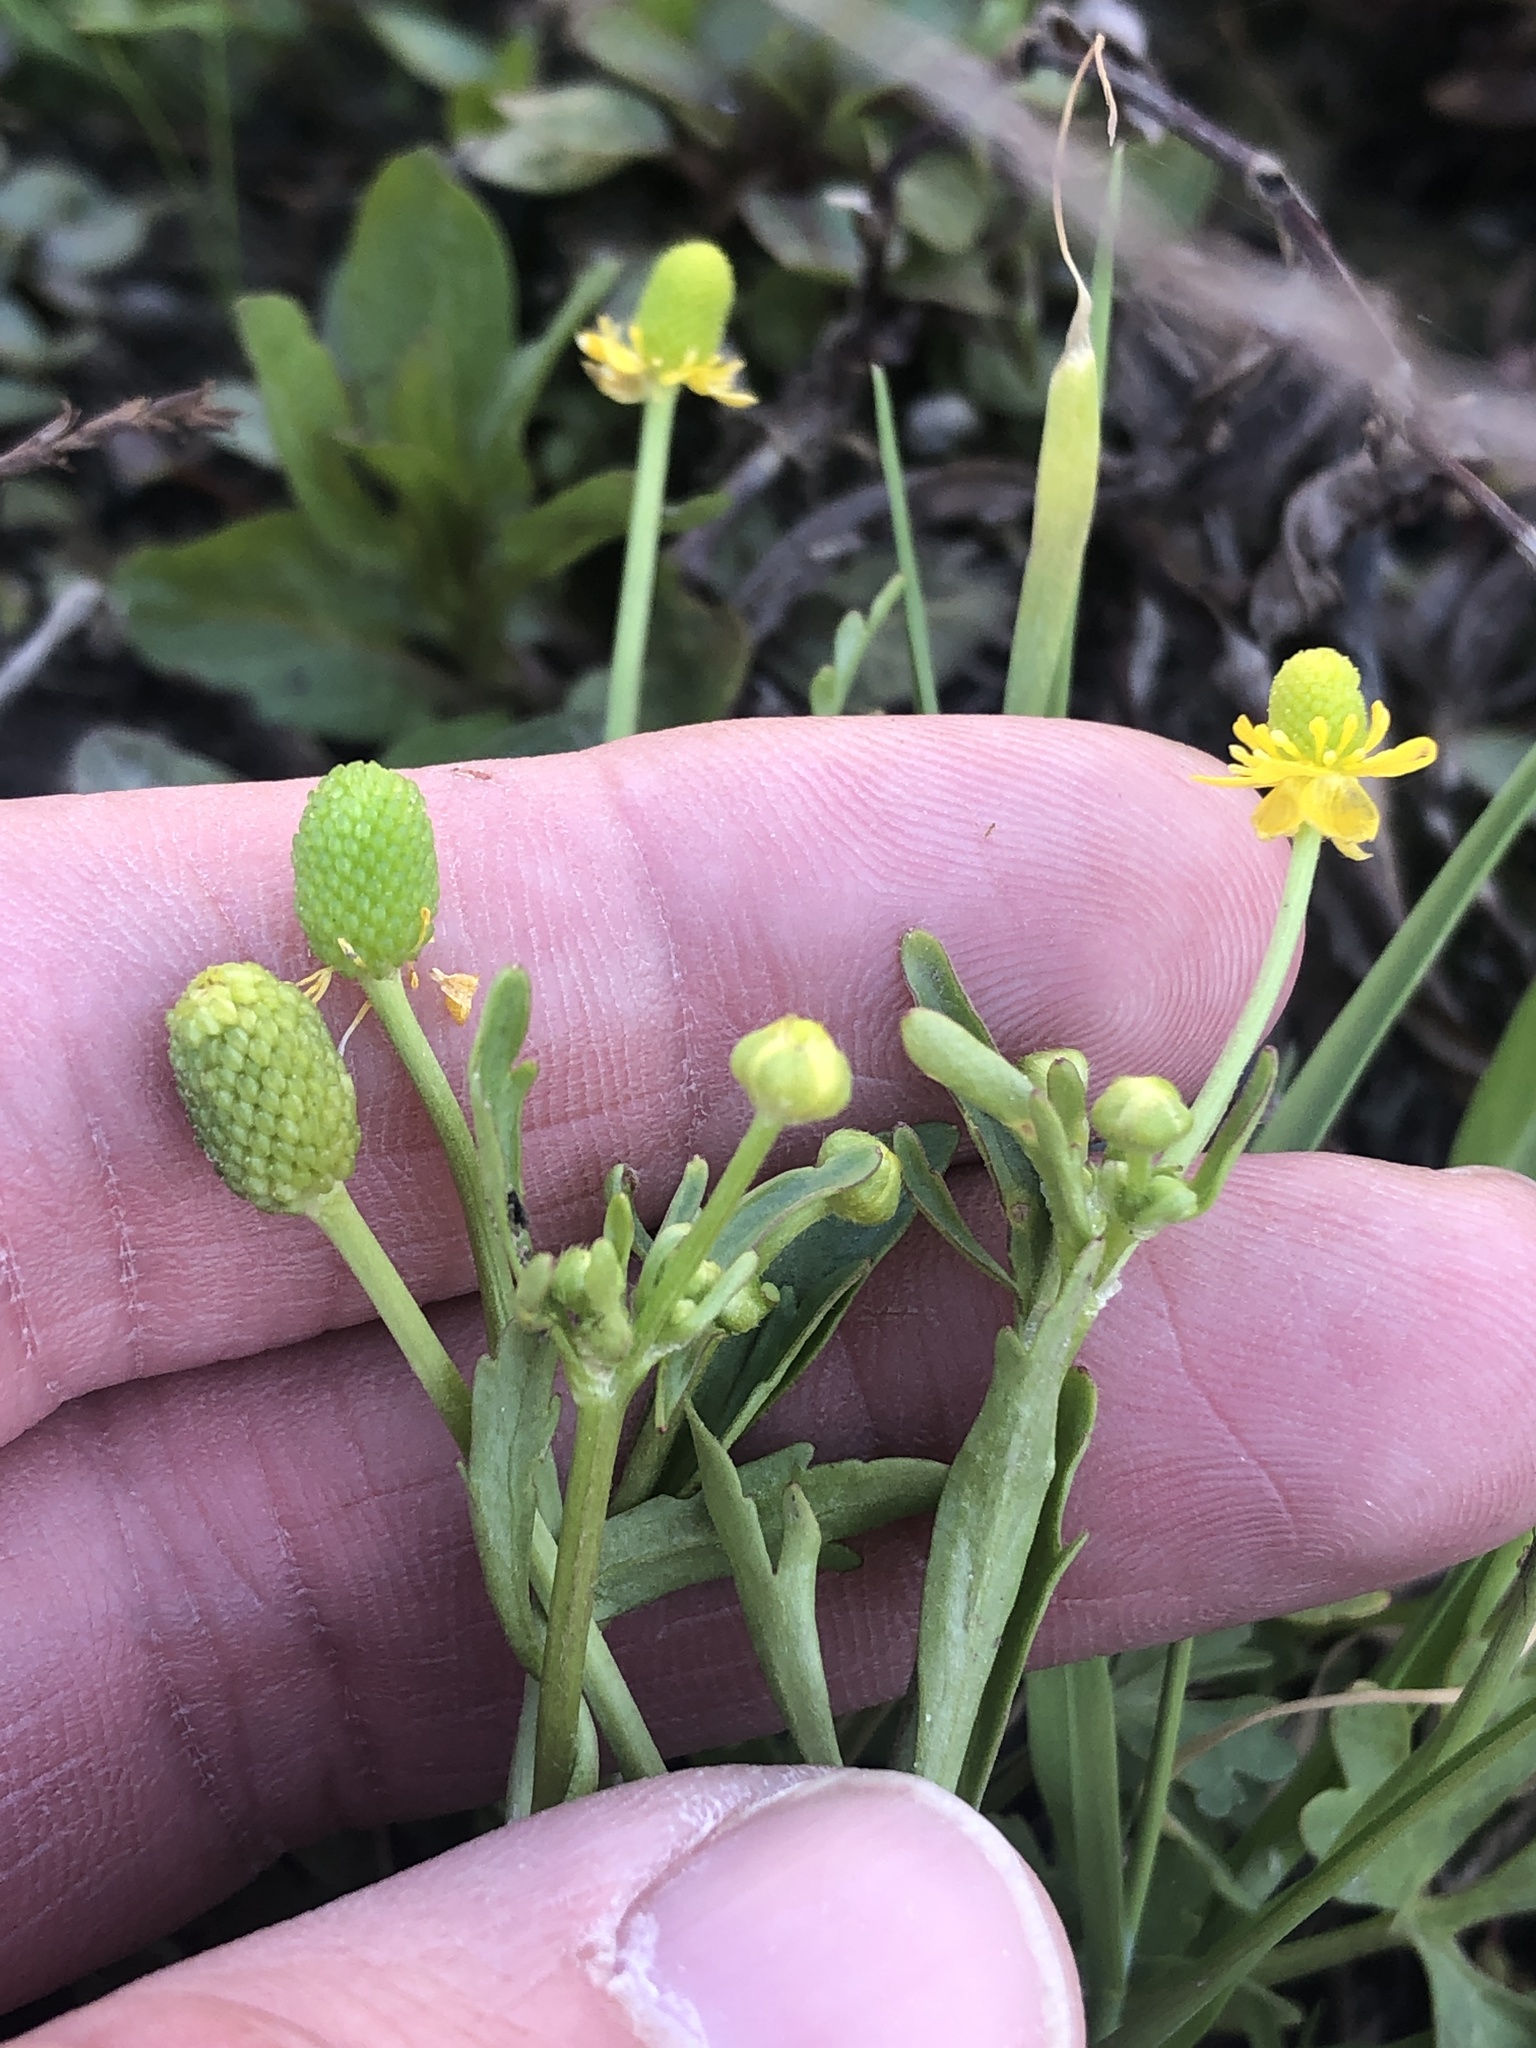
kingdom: Plantae
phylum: Tracheophyta
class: Magnoliopsida
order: Ranunculales
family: Ranunculaceae
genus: Ranunculus
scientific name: Ranunculus sceleratus
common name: Celery-leaved buttercup
